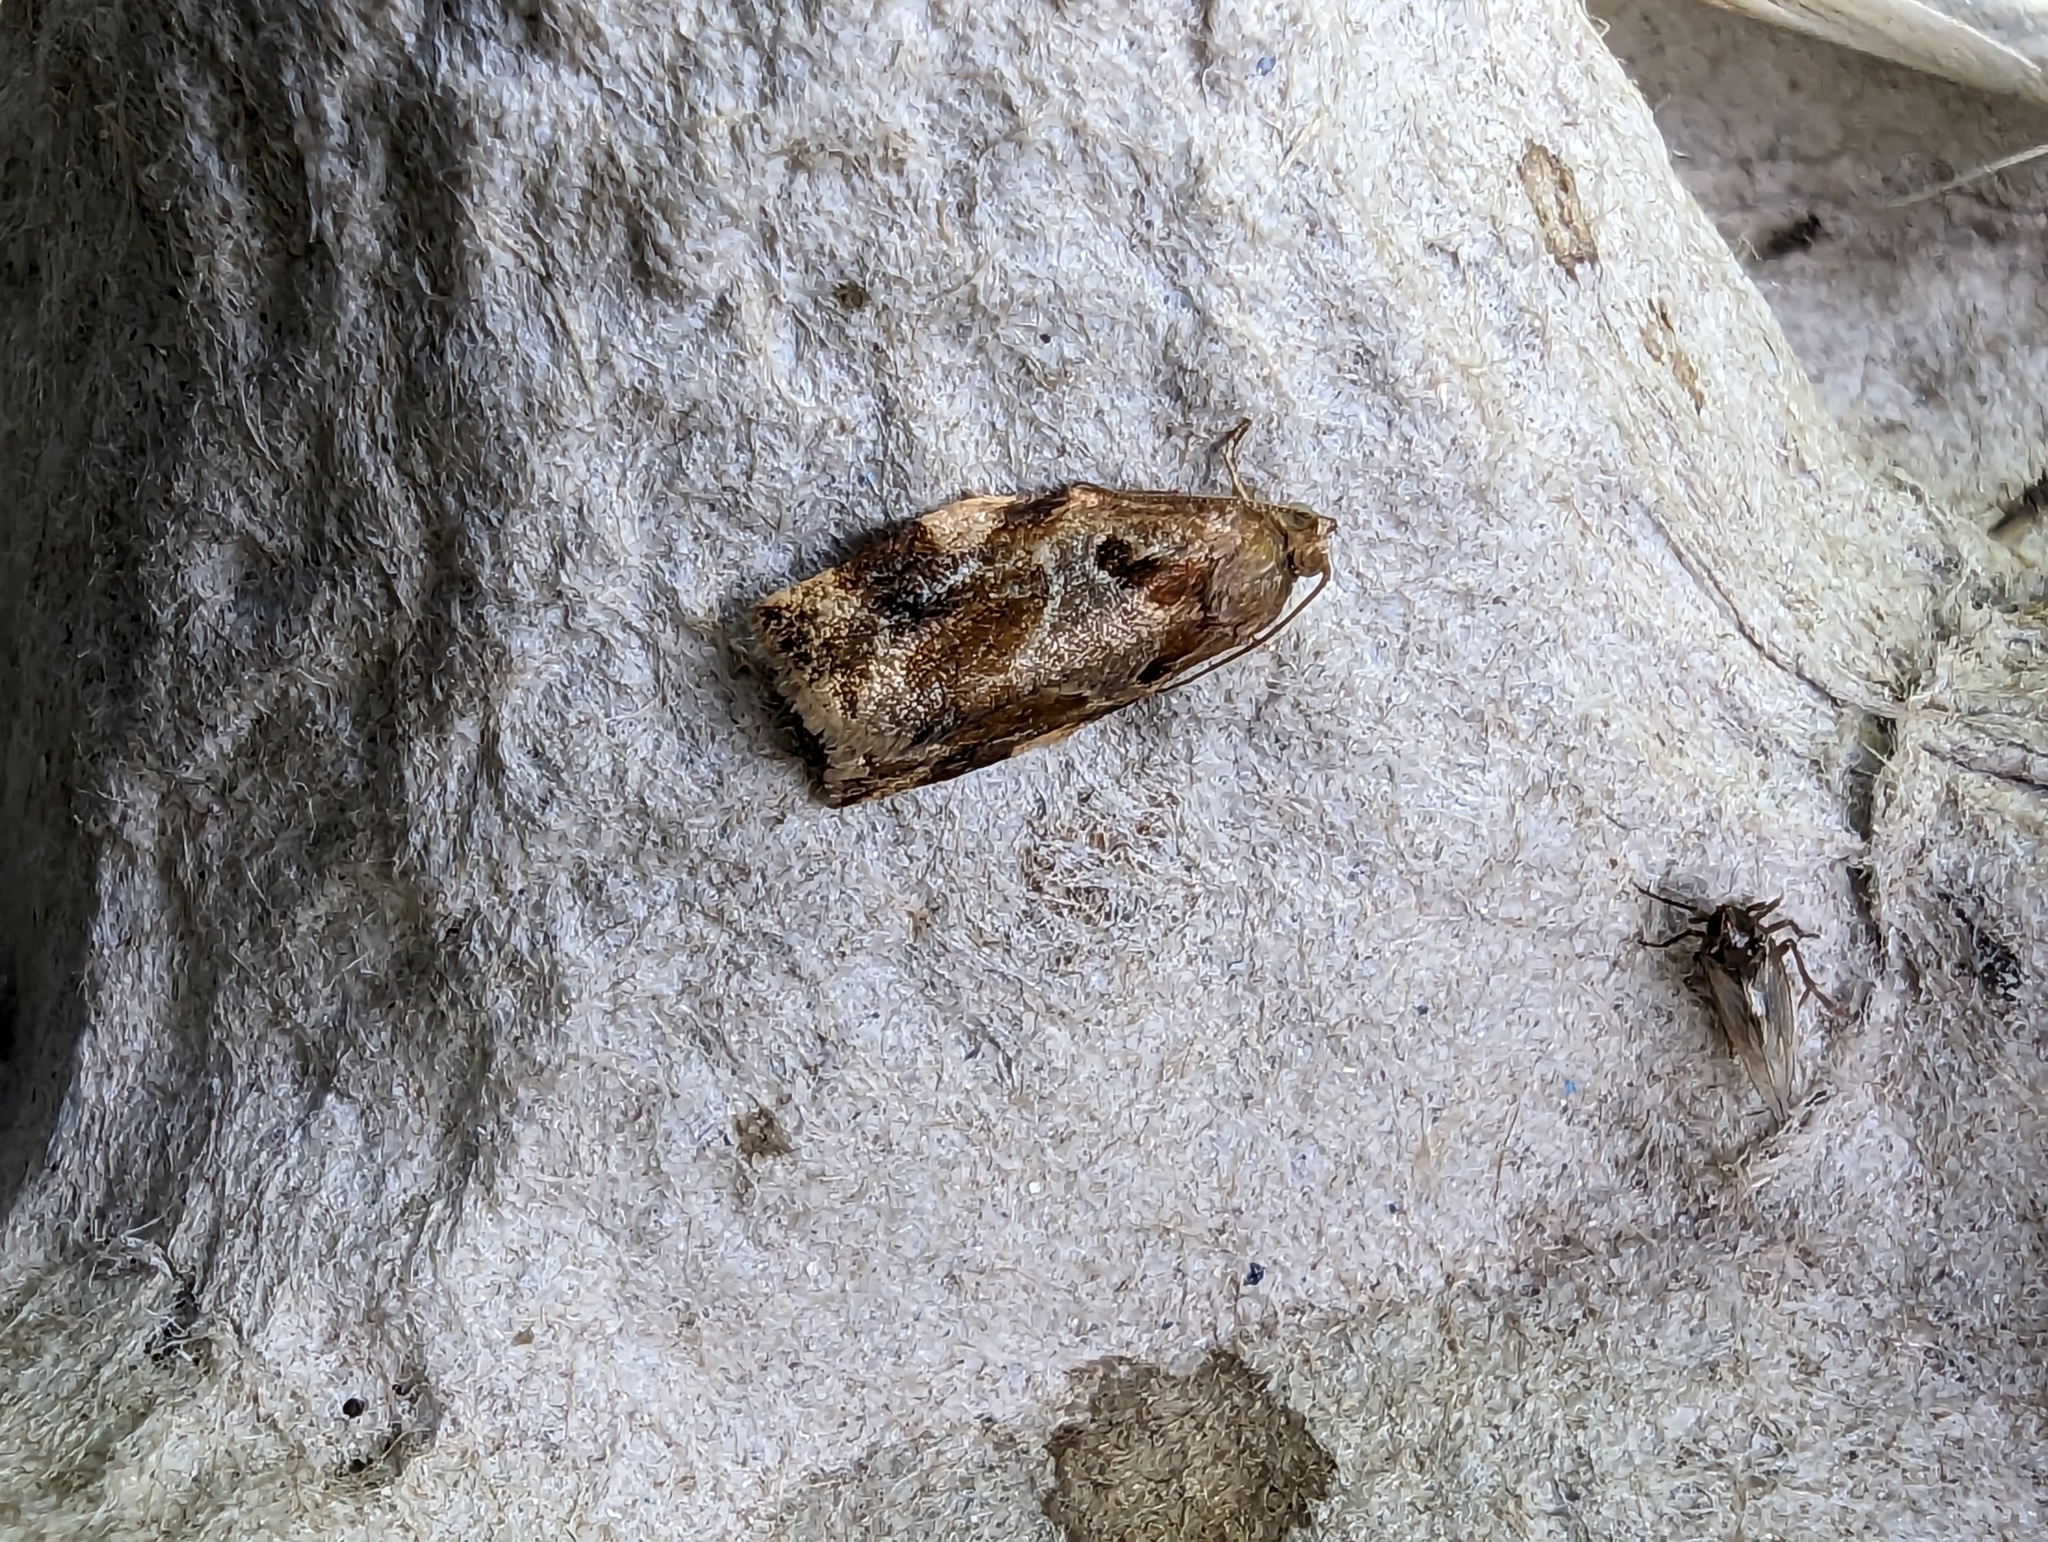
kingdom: Animalia
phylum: Arthropoda
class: Insecta
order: Lepidoptera
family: Tortricidae
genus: Archips
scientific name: Archips xylosteana
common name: Variegated golden tortrix
